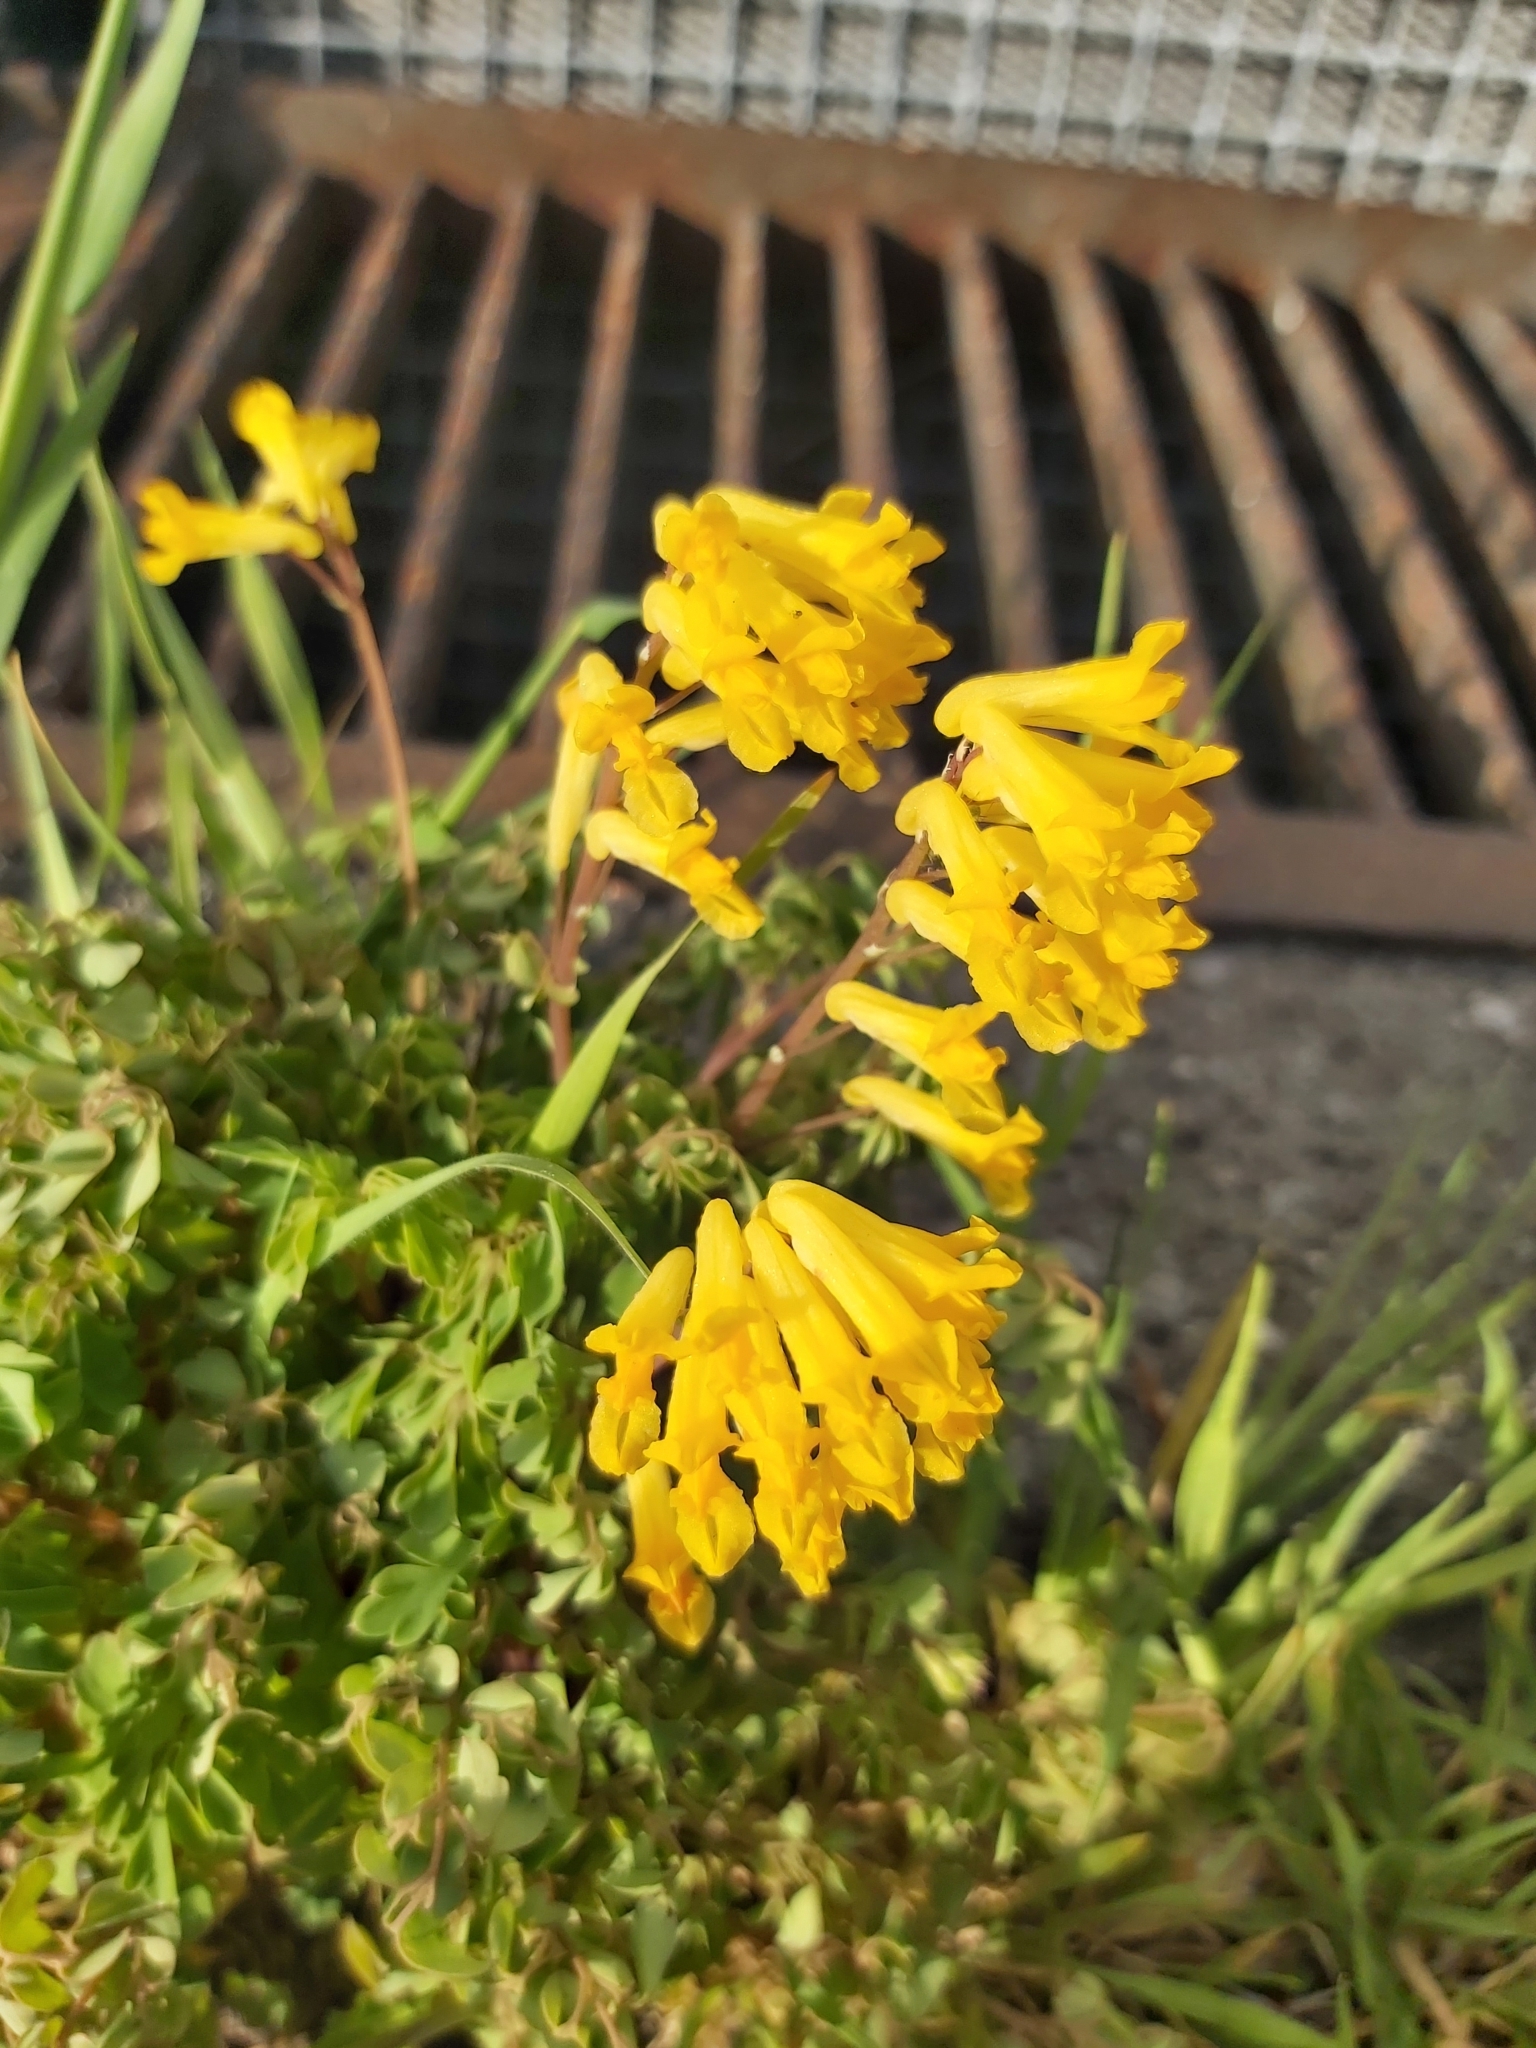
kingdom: Plantae
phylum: Tracheophyta
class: Magnoliopsida
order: Ranunculales
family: Papaveraceae
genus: Pseudofumaria
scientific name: Pseudofumaria lutea
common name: Yellow corydalis
